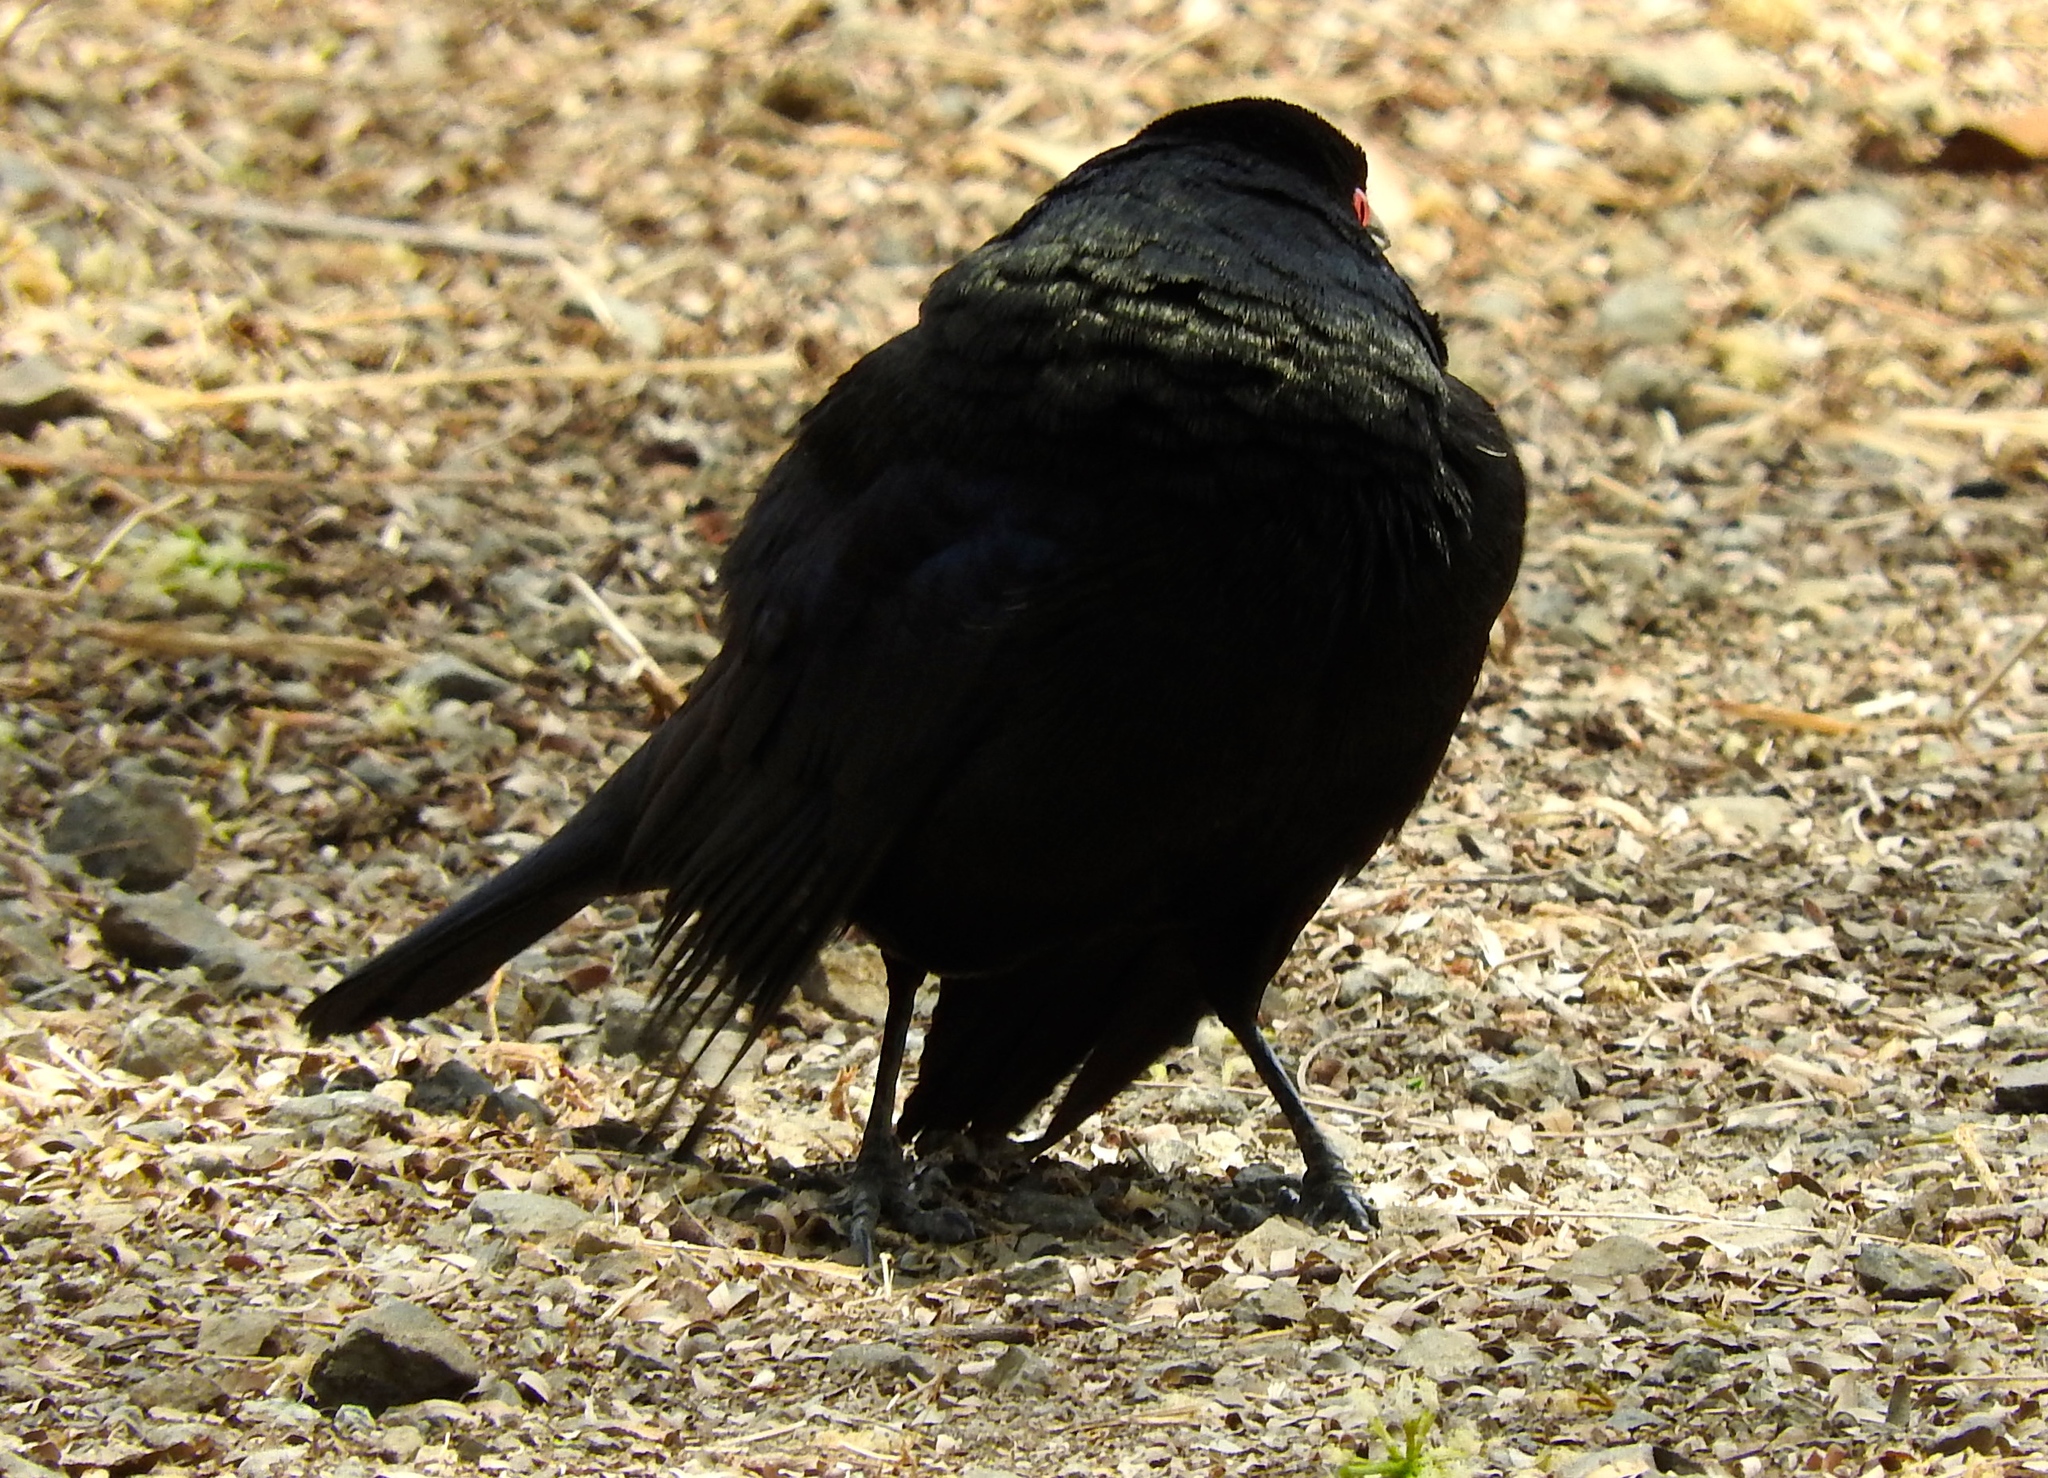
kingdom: Animalia
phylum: Chordata
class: Aves
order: Passeriformes
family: Icteridae
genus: Molothrus
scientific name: Molothrus aeneus
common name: Bronzed cowbird
